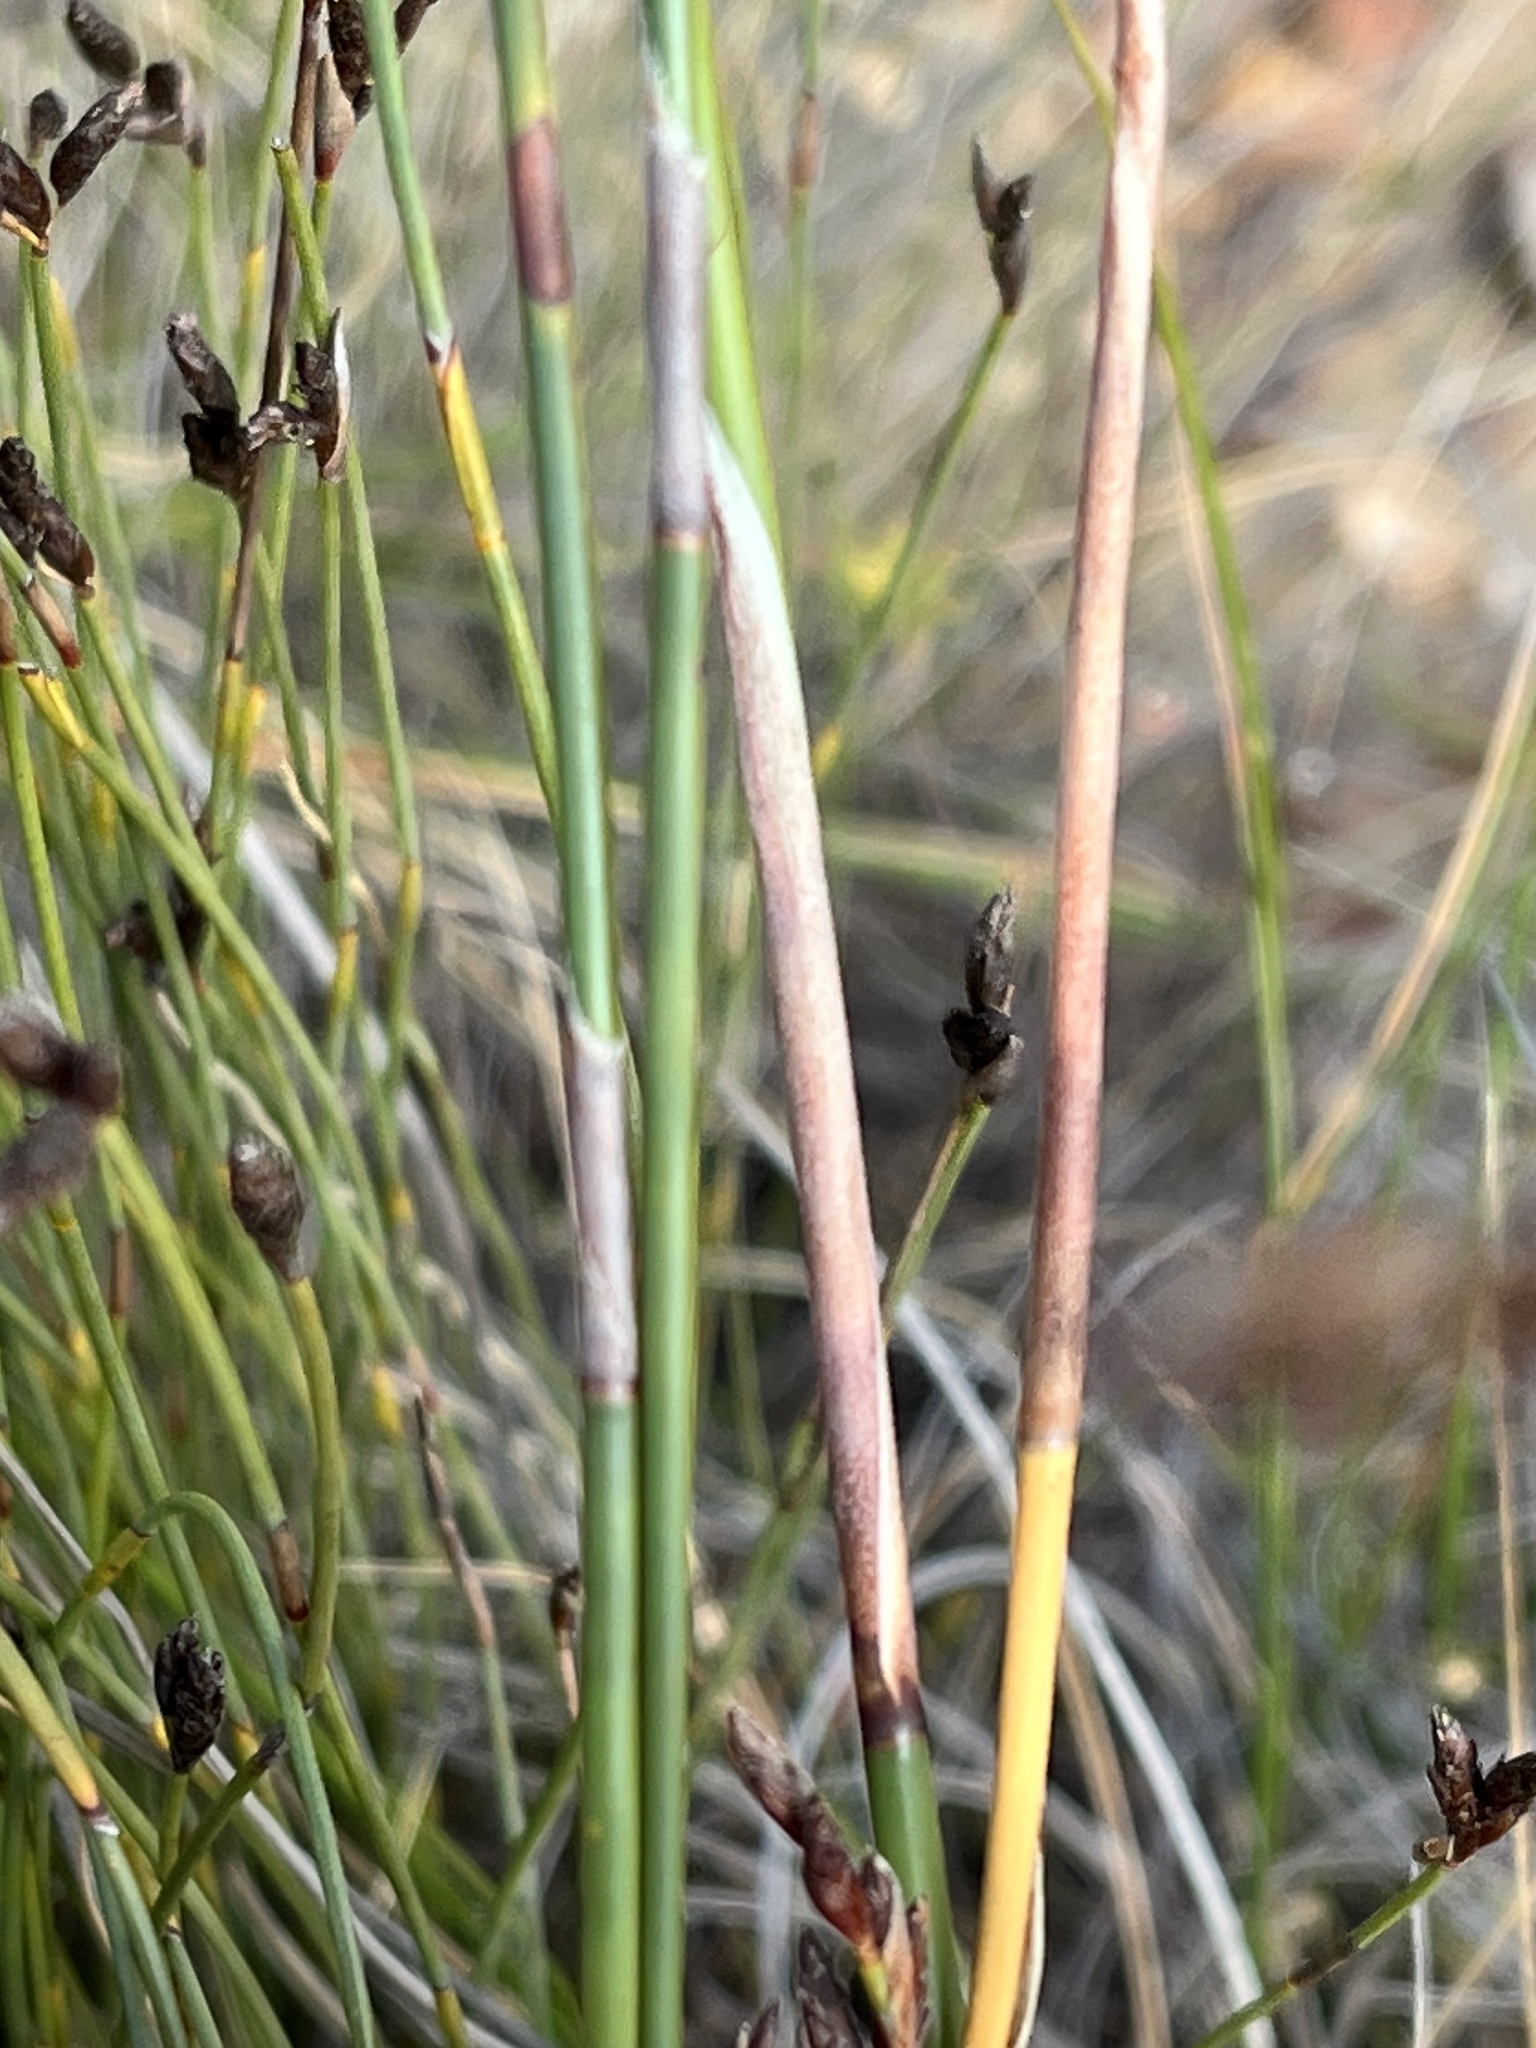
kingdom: Plantae
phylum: Tracheophyta
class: Liliopsida
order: Poales
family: Restionaceae
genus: Rhodocoma
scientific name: Rhodocoma fruticosa
